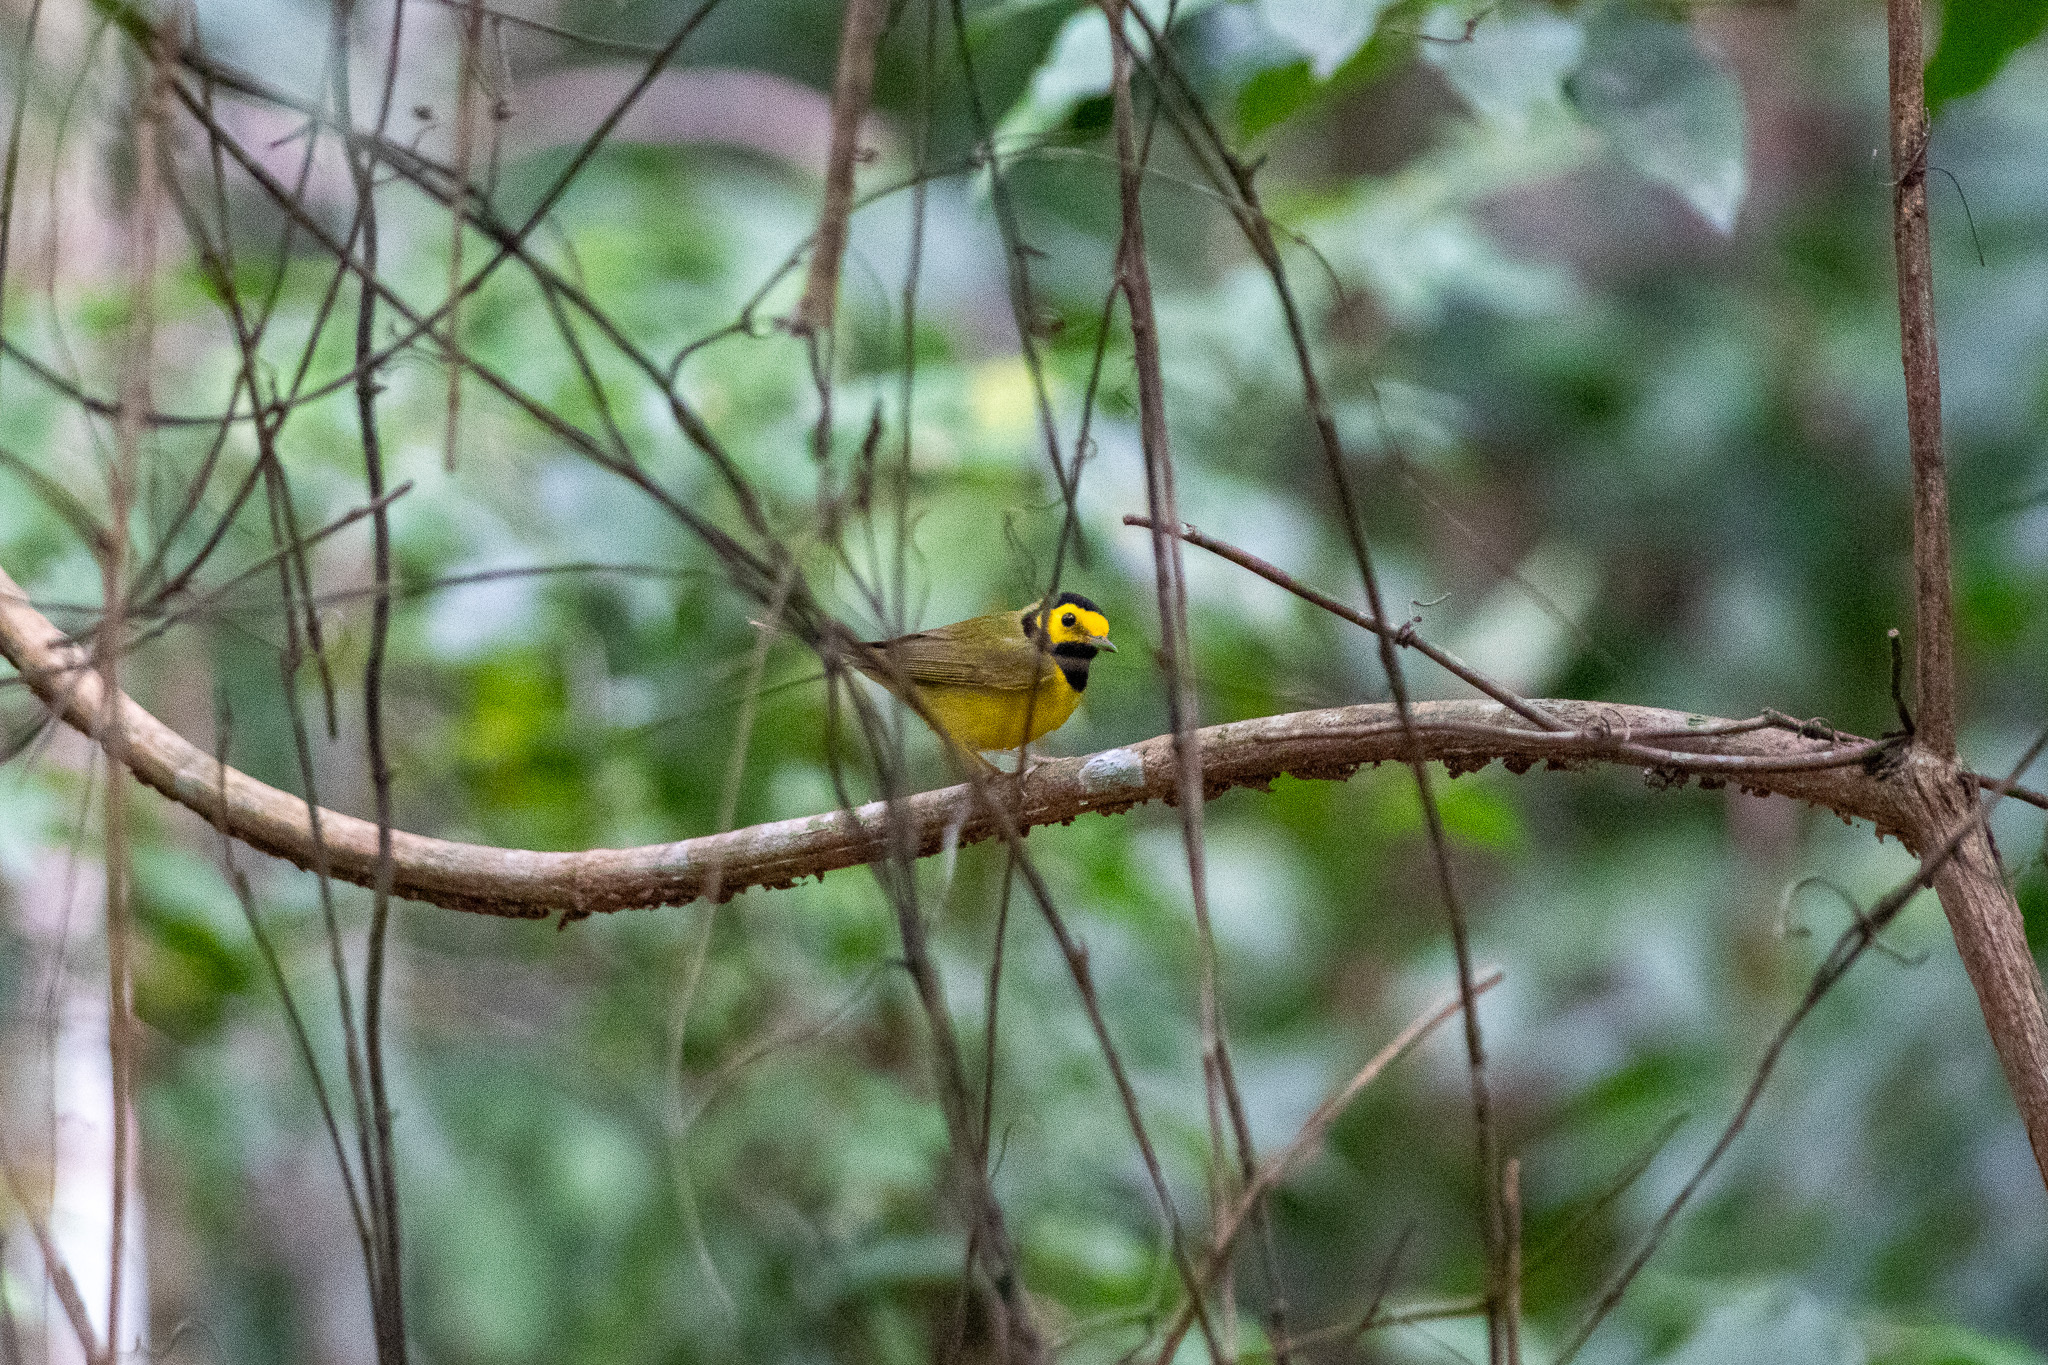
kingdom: Animalia
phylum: Chordata
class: Aves
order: Passeriformes
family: Parulidae
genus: Setophaga
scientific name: Setophaga citrina
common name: Hooded warbler
